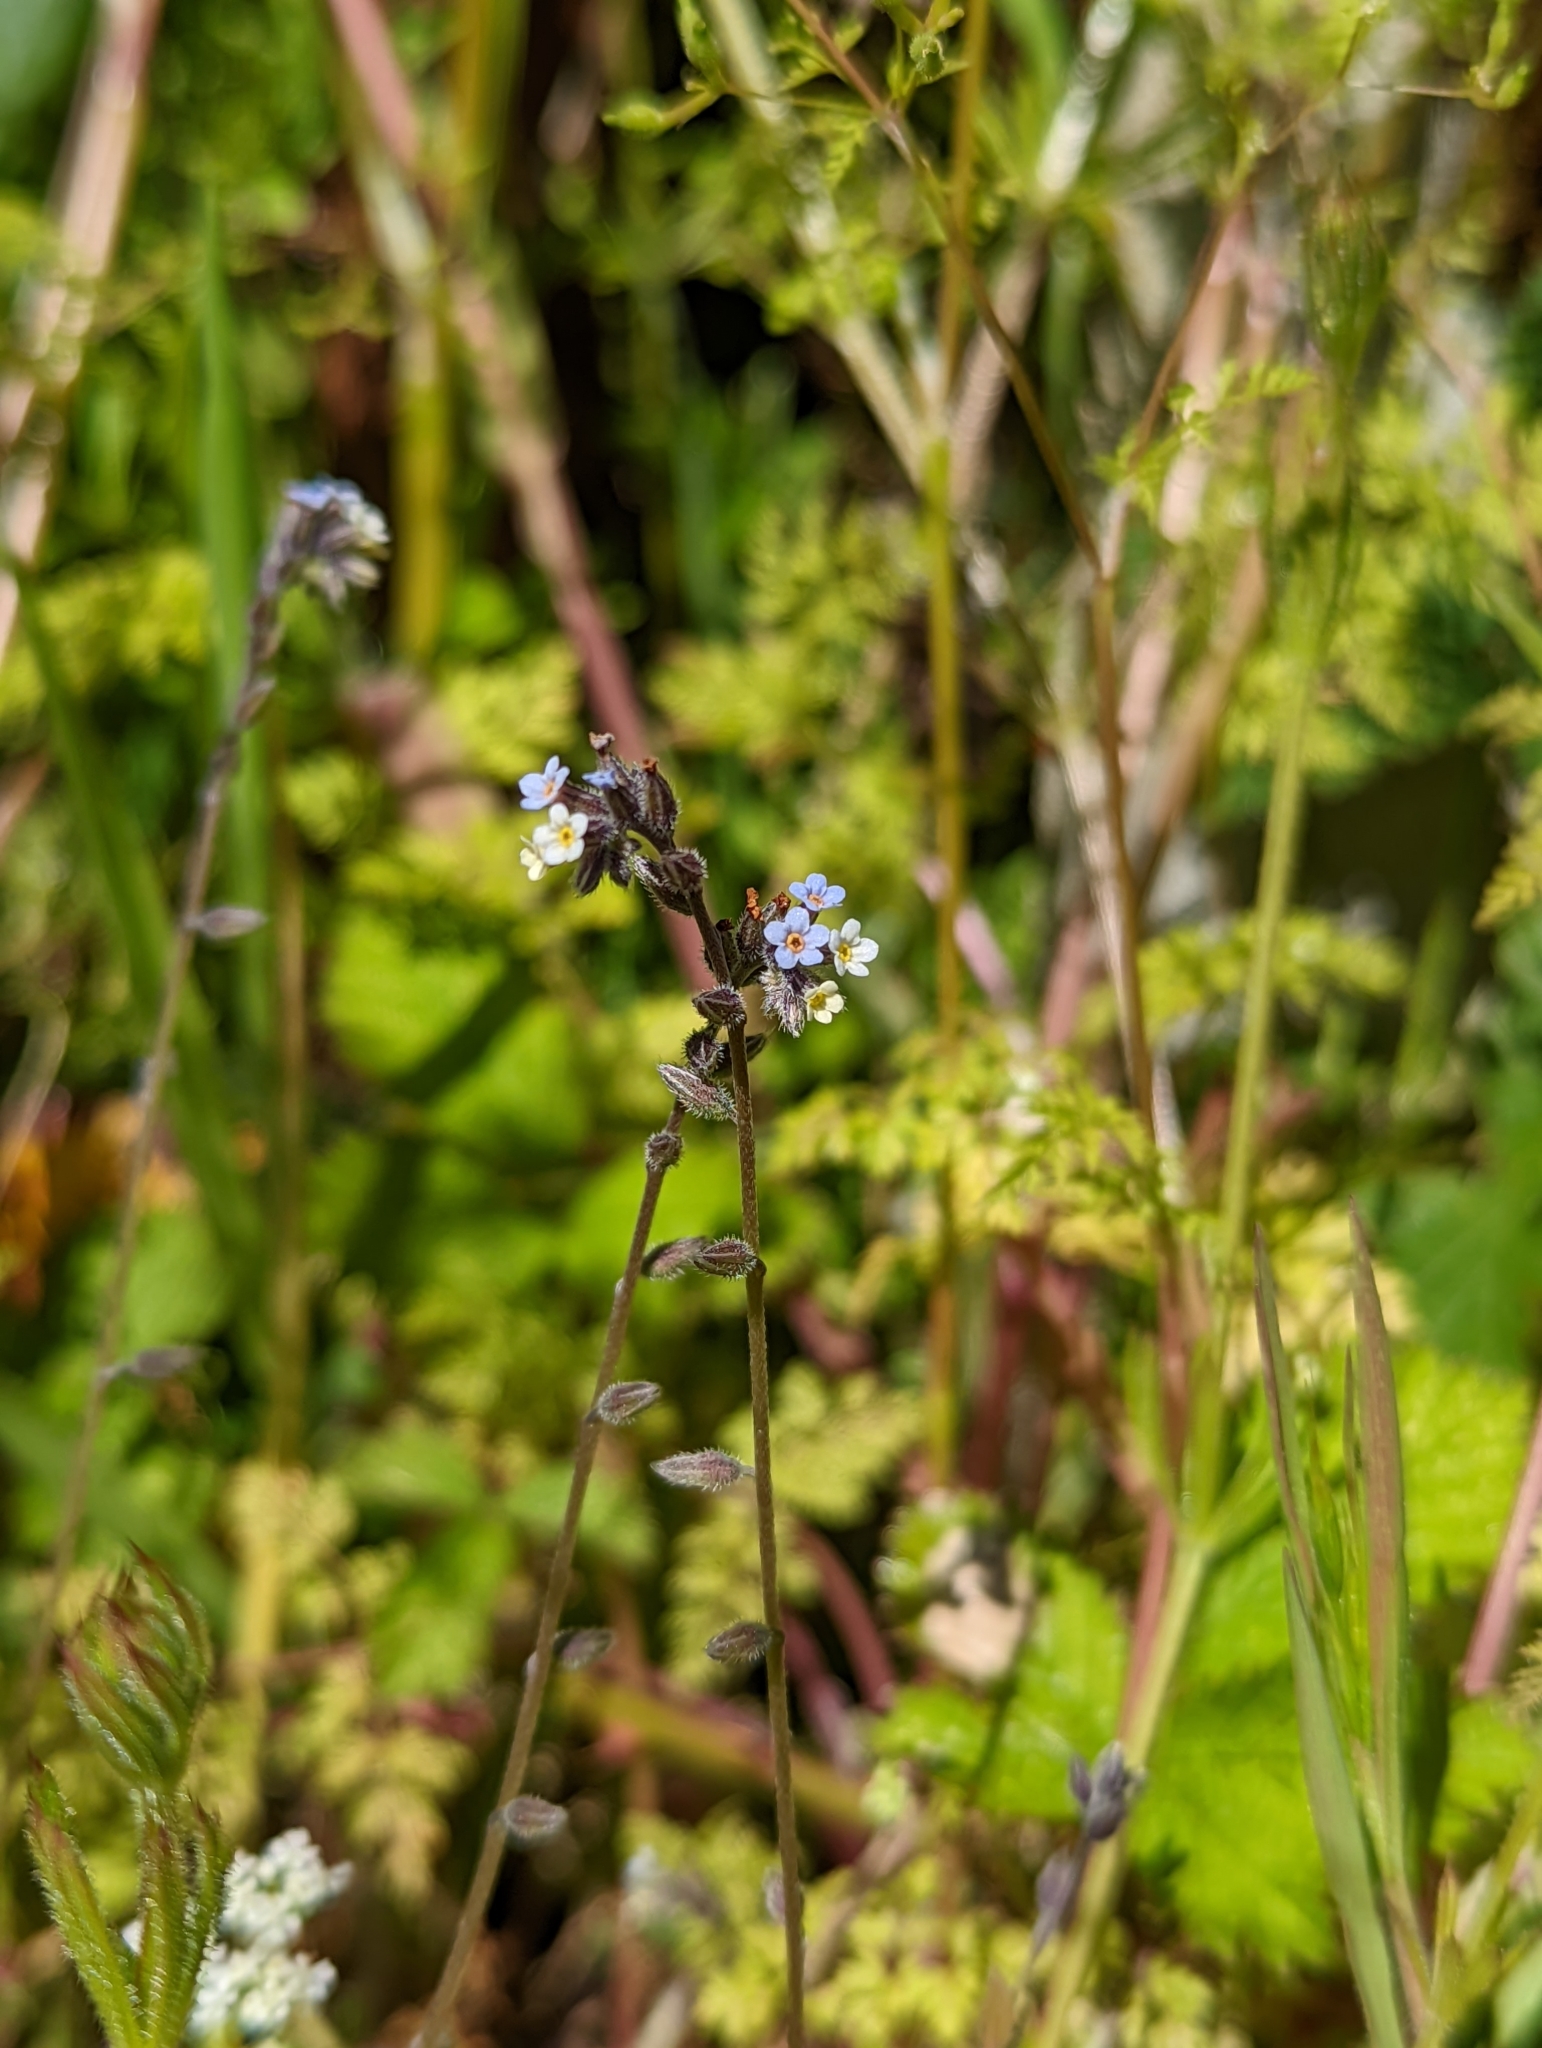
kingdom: Plantae
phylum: Tracheophyta
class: Magnoliopsida
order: Boraginales
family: Boraginaceae
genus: Myosotis
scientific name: Myosotis discolor
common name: Changing forget-me-not
